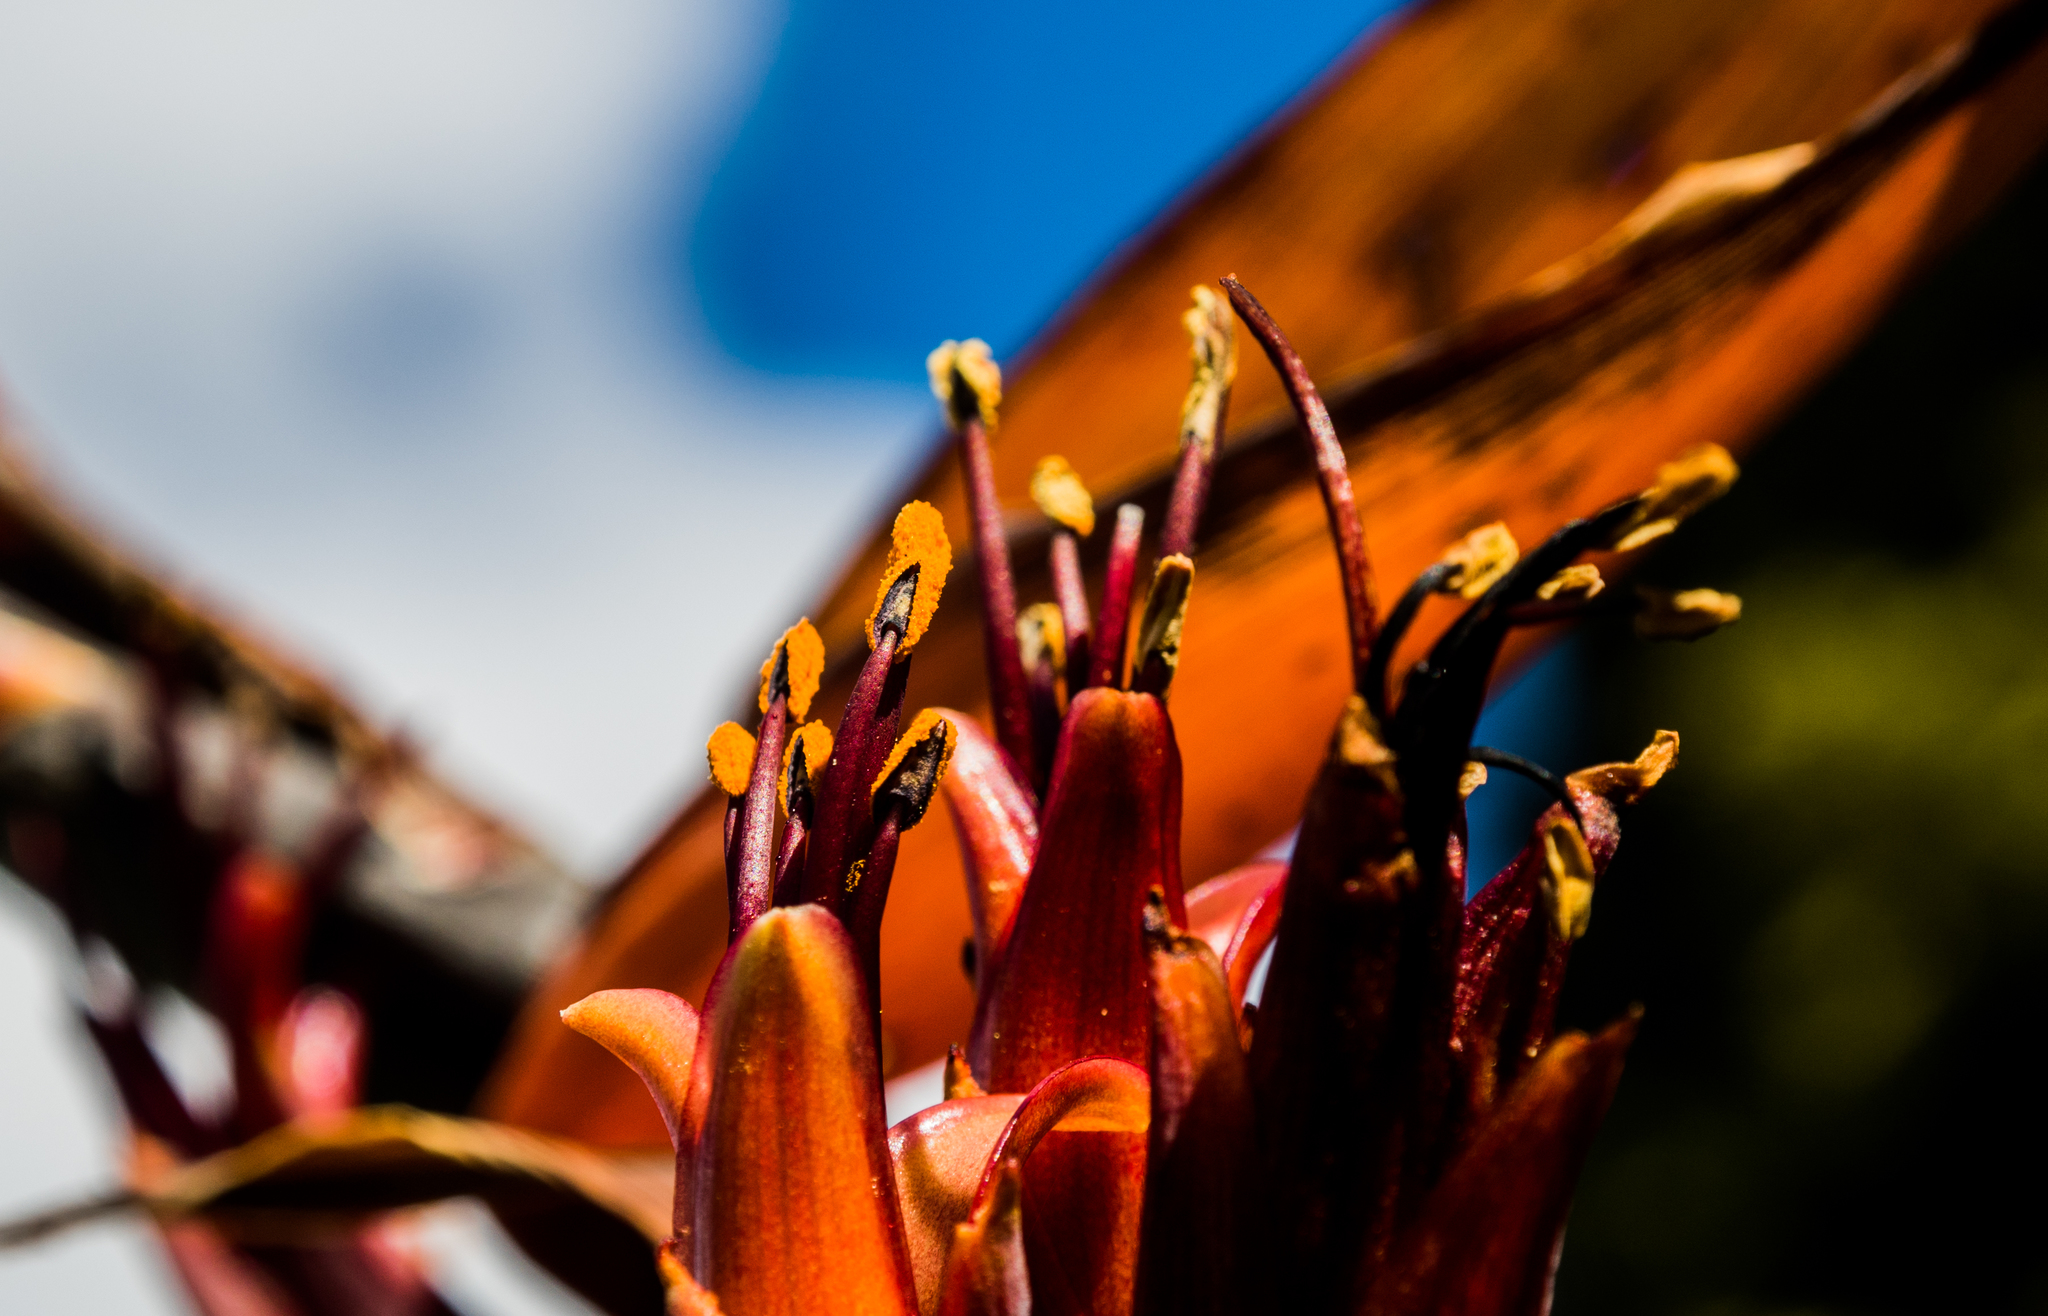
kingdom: Plantae
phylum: Tracheophyta
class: Liliopsida
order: Asparagales
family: Asphodelaceae
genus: Phormium
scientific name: Phormium tenax
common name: New zealand flax
